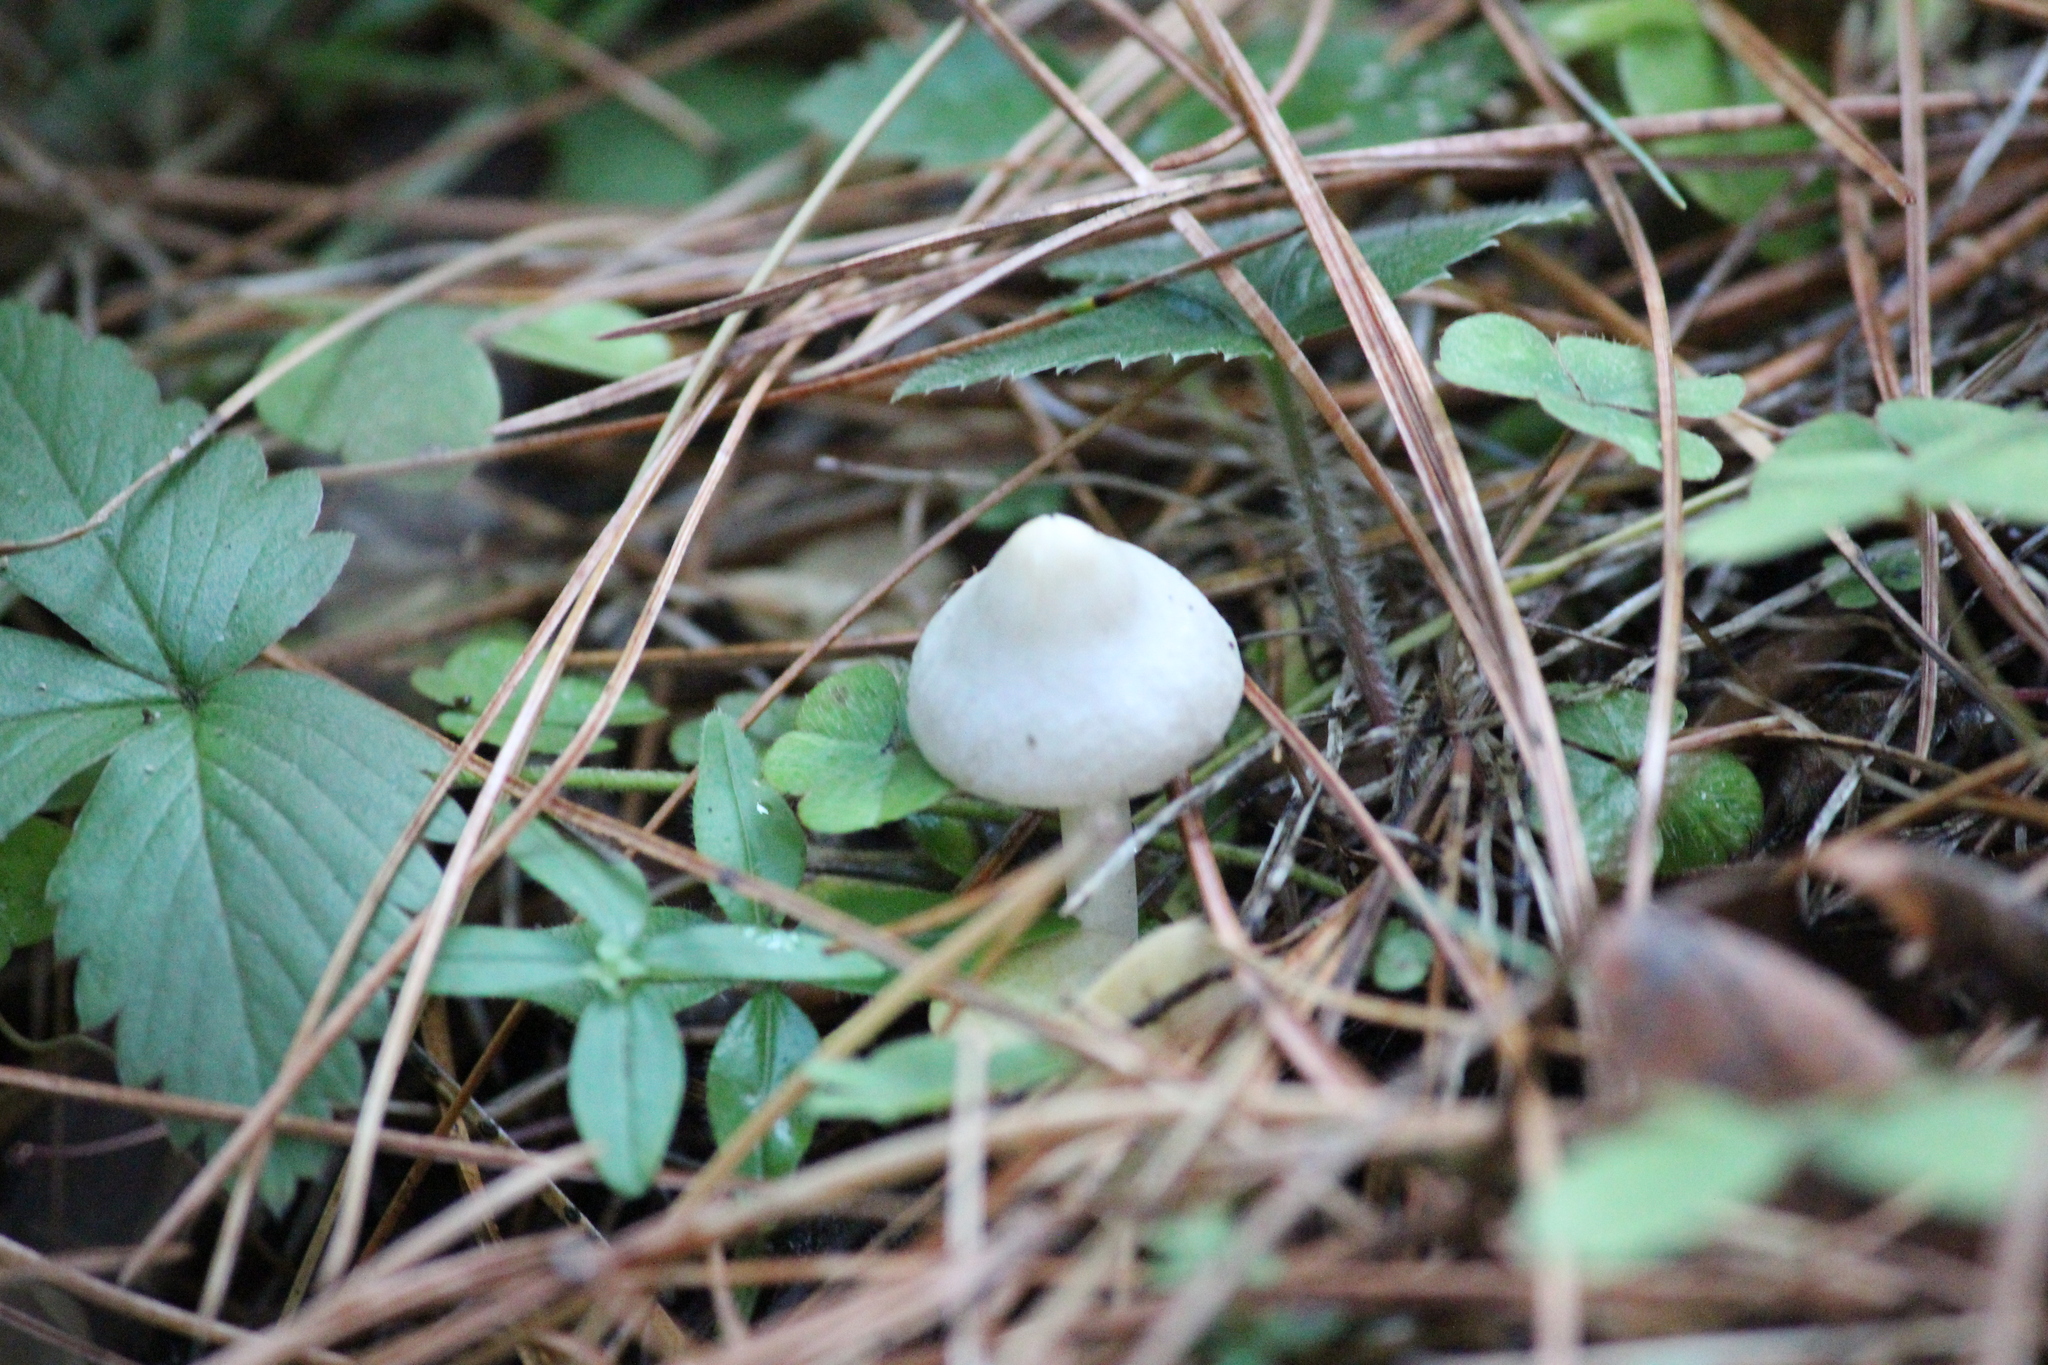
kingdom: Fungi
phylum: Basidiomycota
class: Agaricomycetes
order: Agaricales
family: Inocybaceae
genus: Inocybe
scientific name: Inocybe geophylla
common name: White fibrecap
